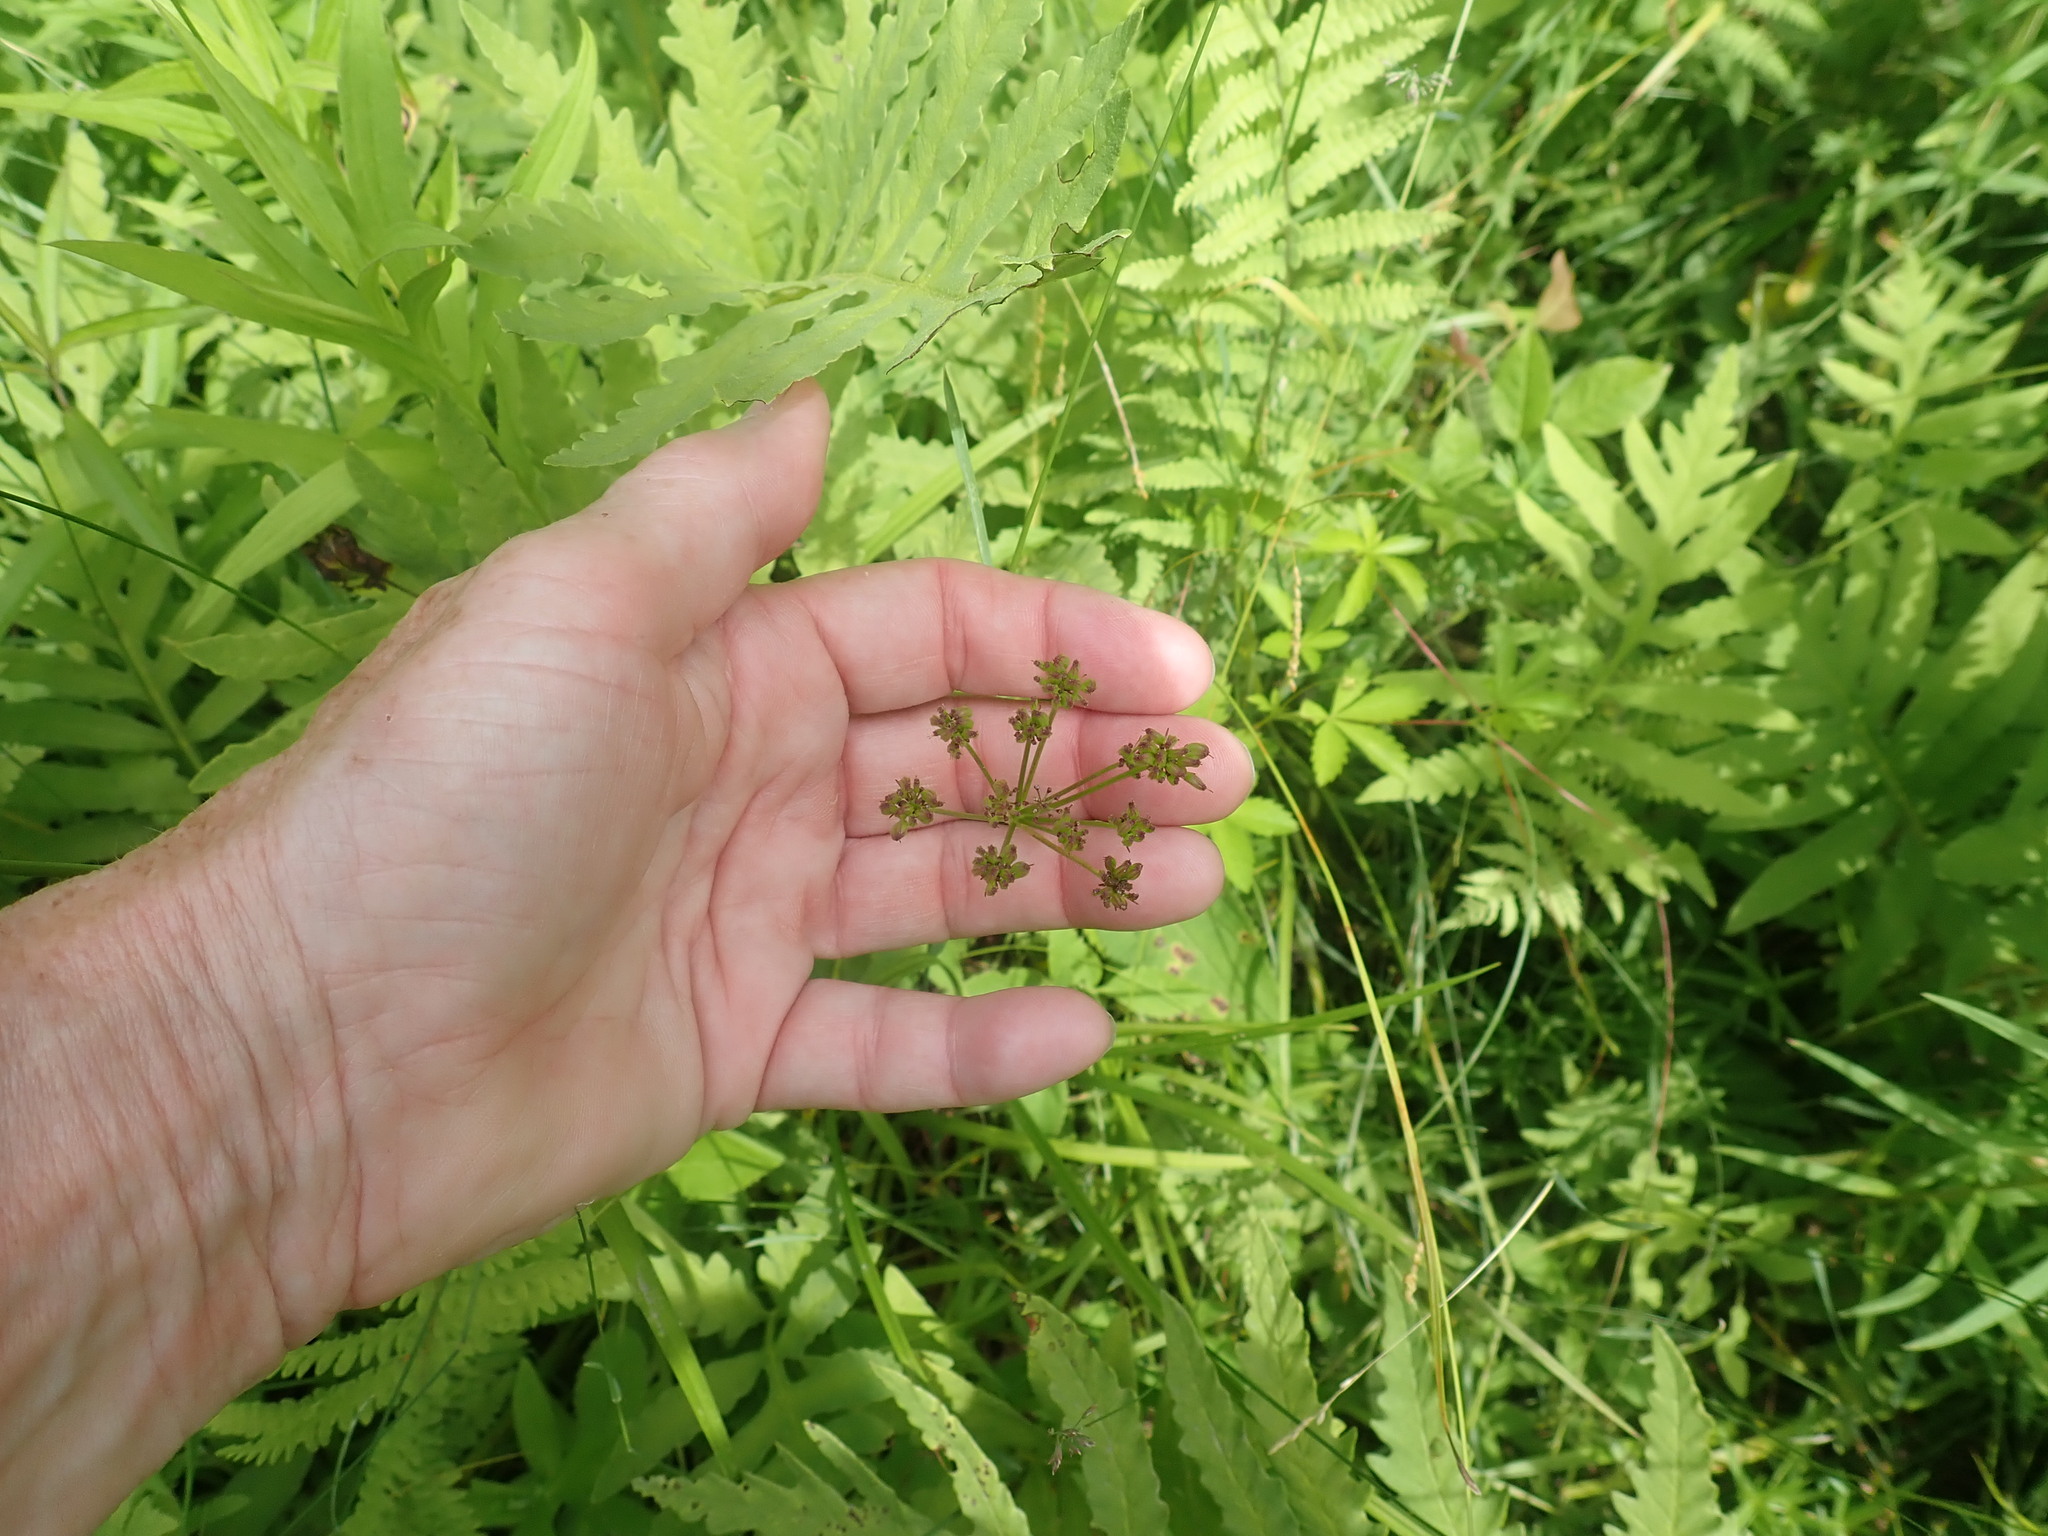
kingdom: Plantae
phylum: Tracheophyta
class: Magnoliopsida
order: Apiales
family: Apiaceae
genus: Zizia
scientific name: Zizia aurea
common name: Golden alexanders
